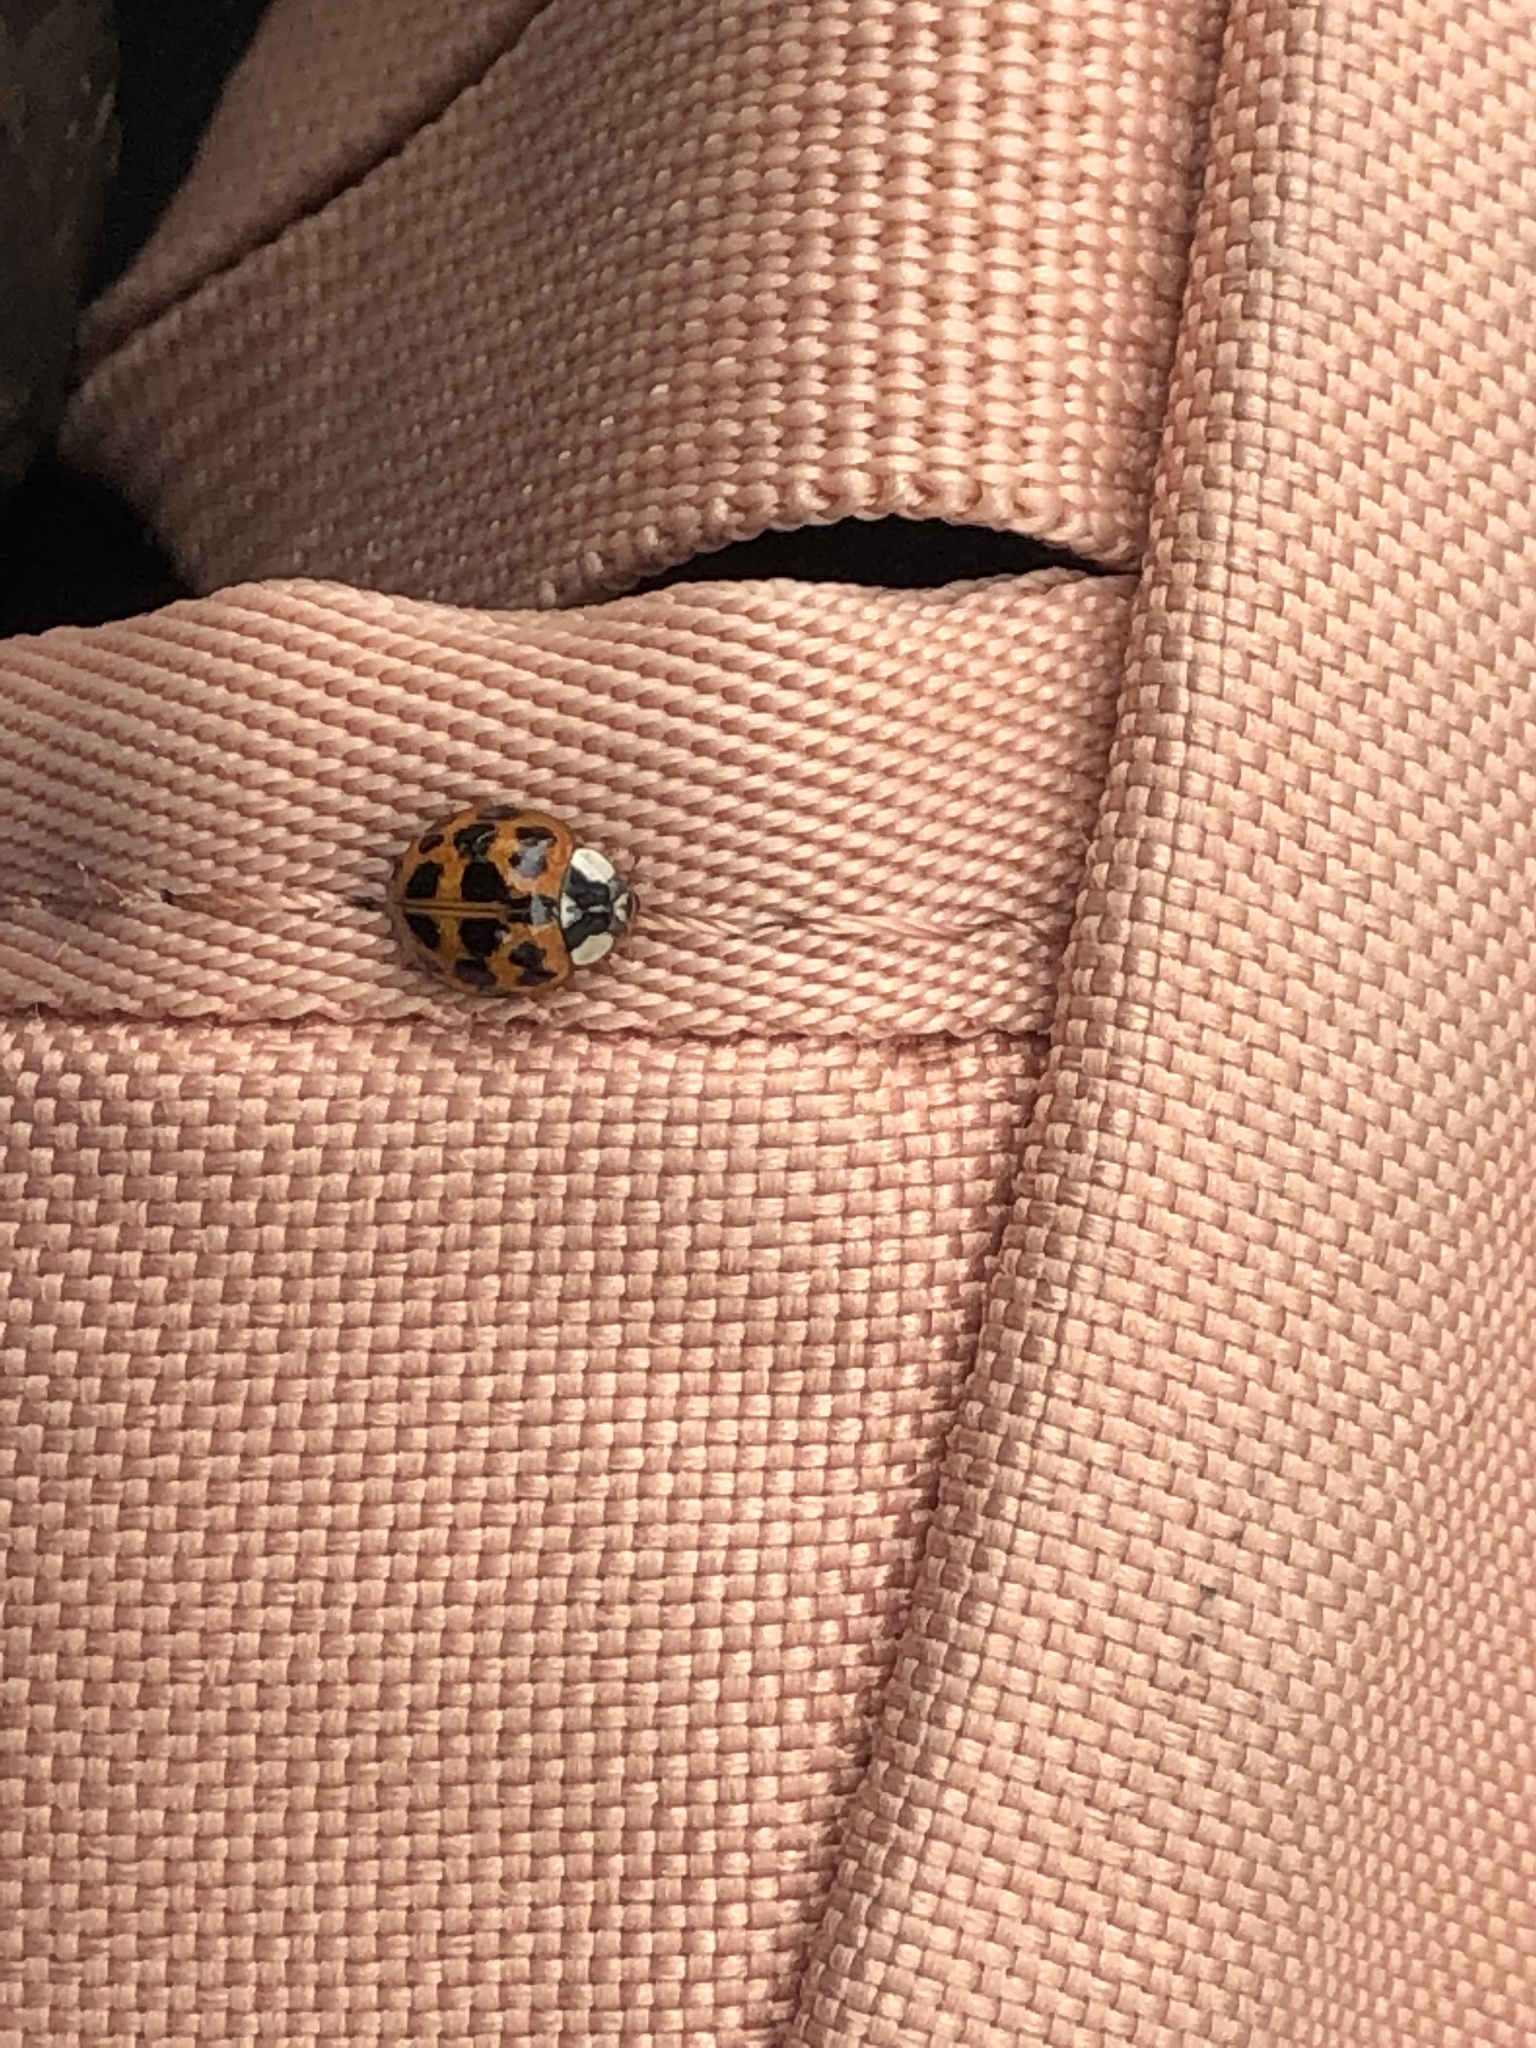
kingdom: Animalia
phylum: Arthropoda
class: Insecta
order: Coleoptera
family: Coccinellidae
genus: Harmonia
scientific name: Harmonia axyridis
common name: Harlequin ladybird
